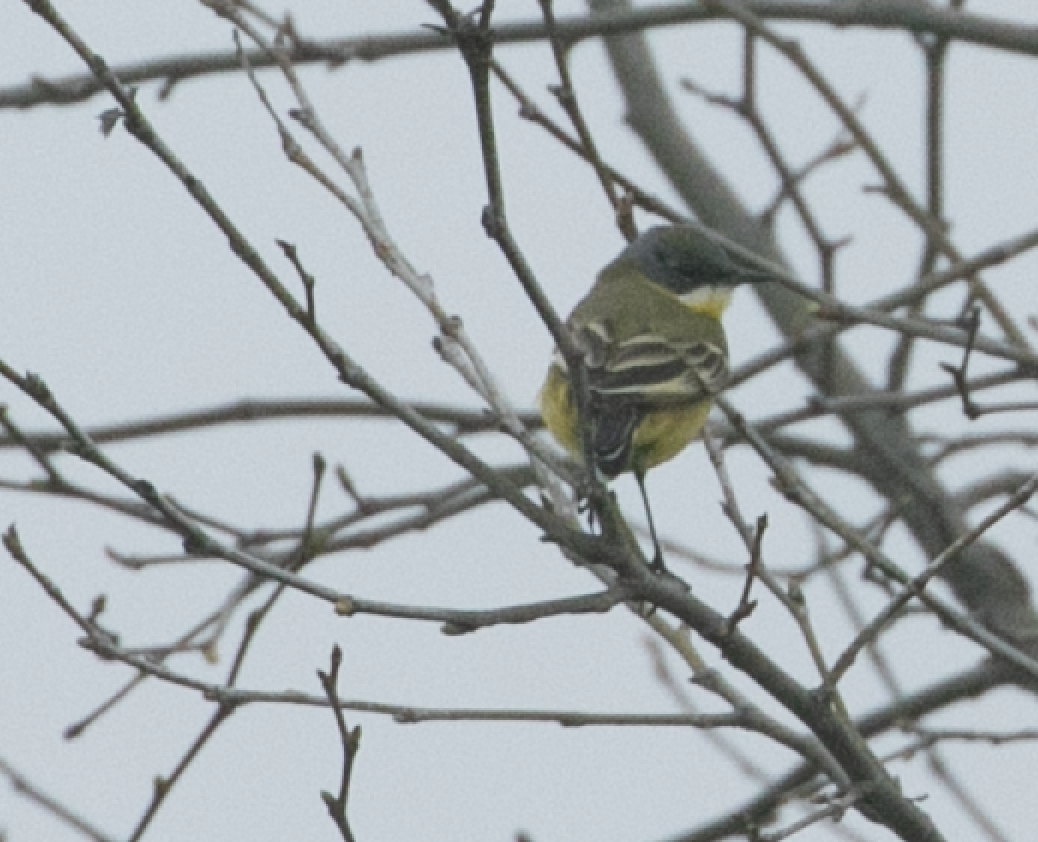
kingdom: Animalia
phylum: Chordata
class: Aves
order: Passeriformes
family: Motacillidae
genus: Motacilla
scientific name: Motacilla flava
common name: Western yellow wagtail
